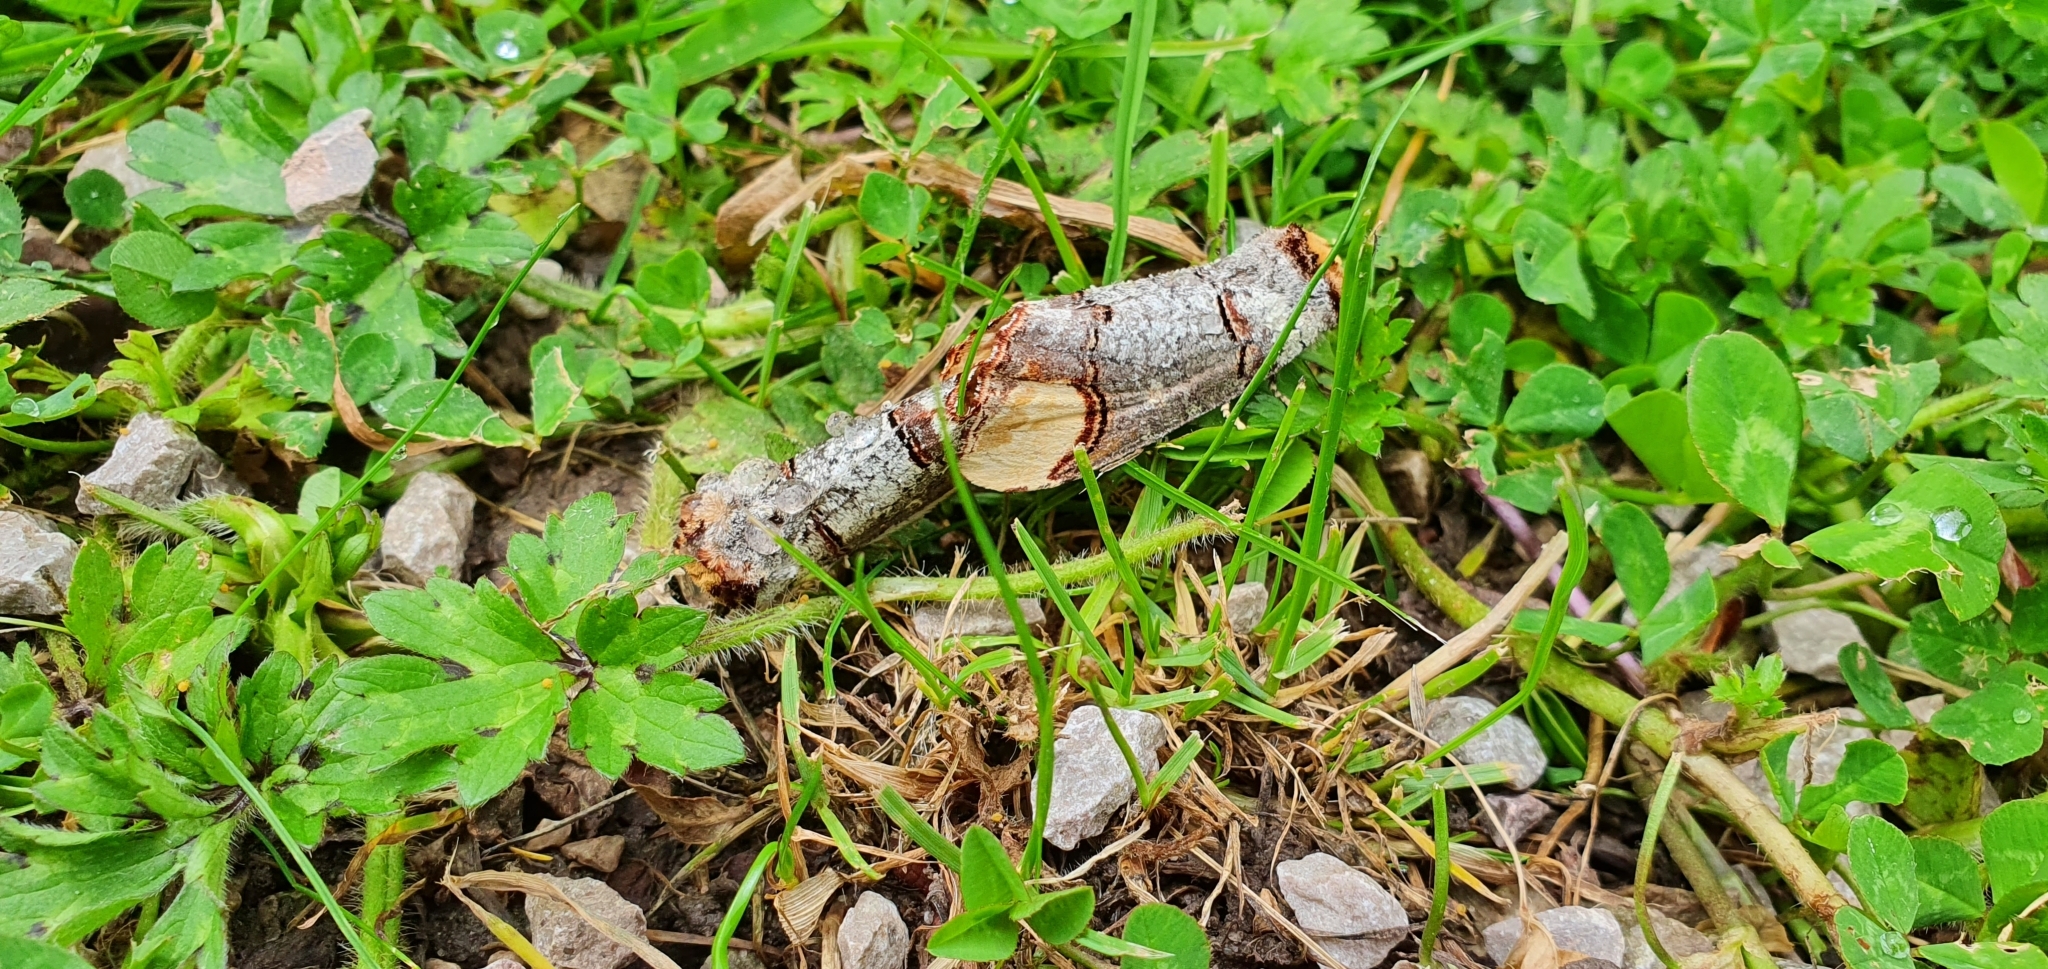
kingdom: Animalia
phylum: Arthropoda
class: Insecta
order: Lepidoptera
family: Notodontidae
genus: Phalera
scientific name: Phalera bucephala
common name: Buff-tip
